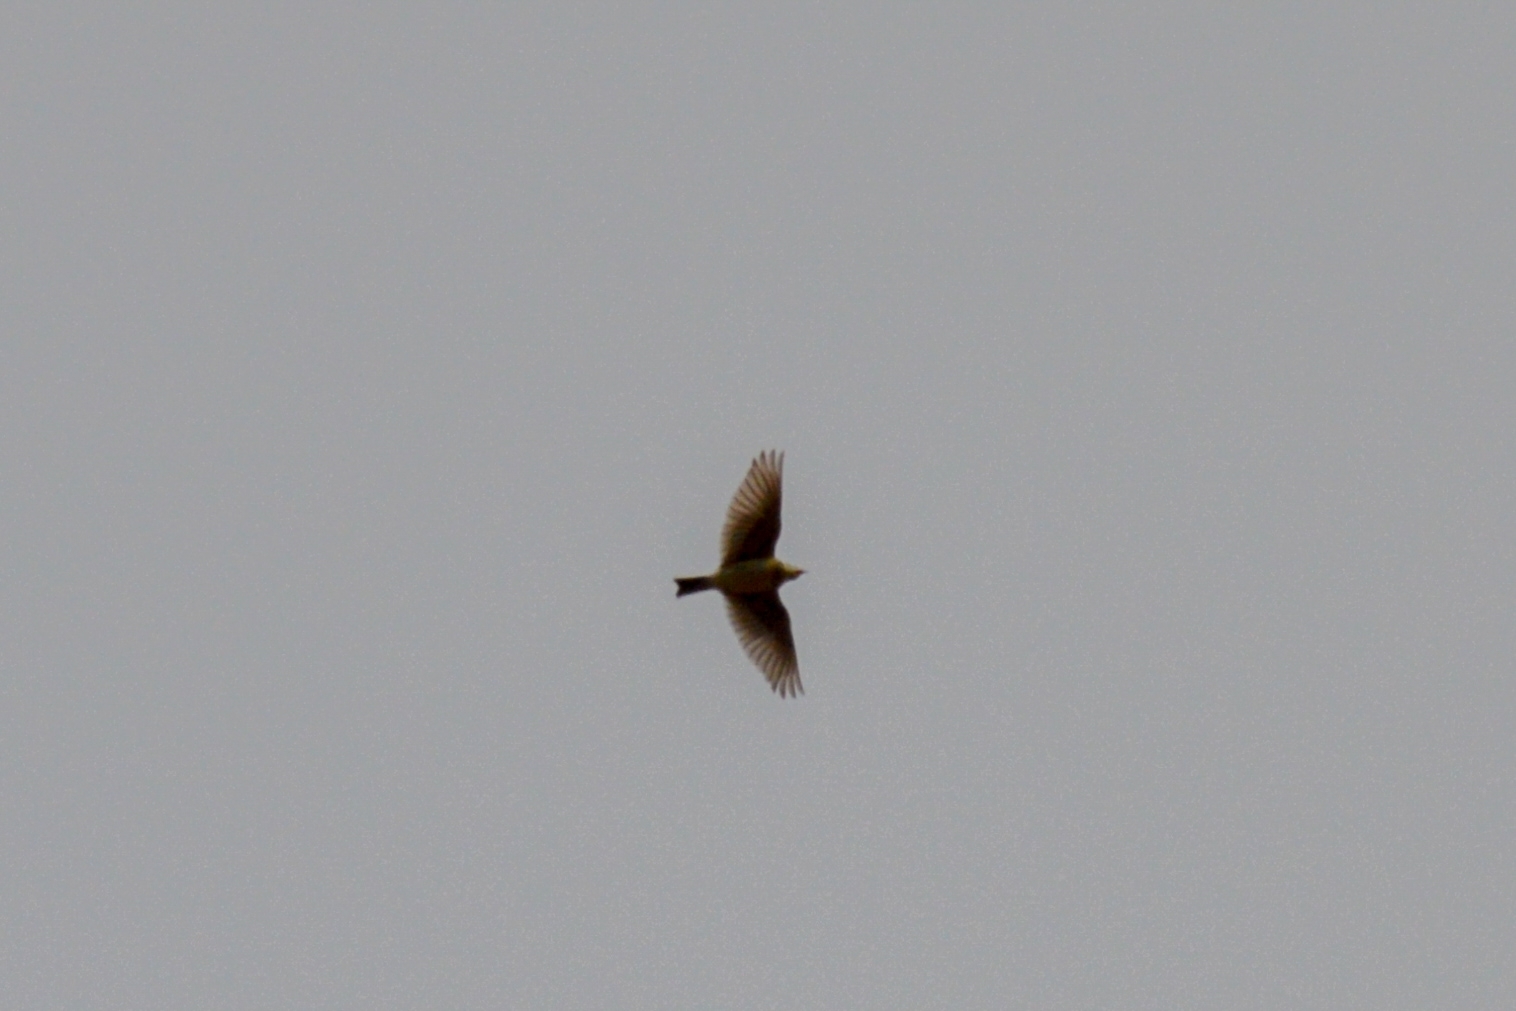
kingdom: Animalia
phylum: Chordata
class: Aves
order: Passeriformes
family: Alaudidae
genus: Alauda
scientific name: Alauda arvensis
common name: Eurasian skylark
